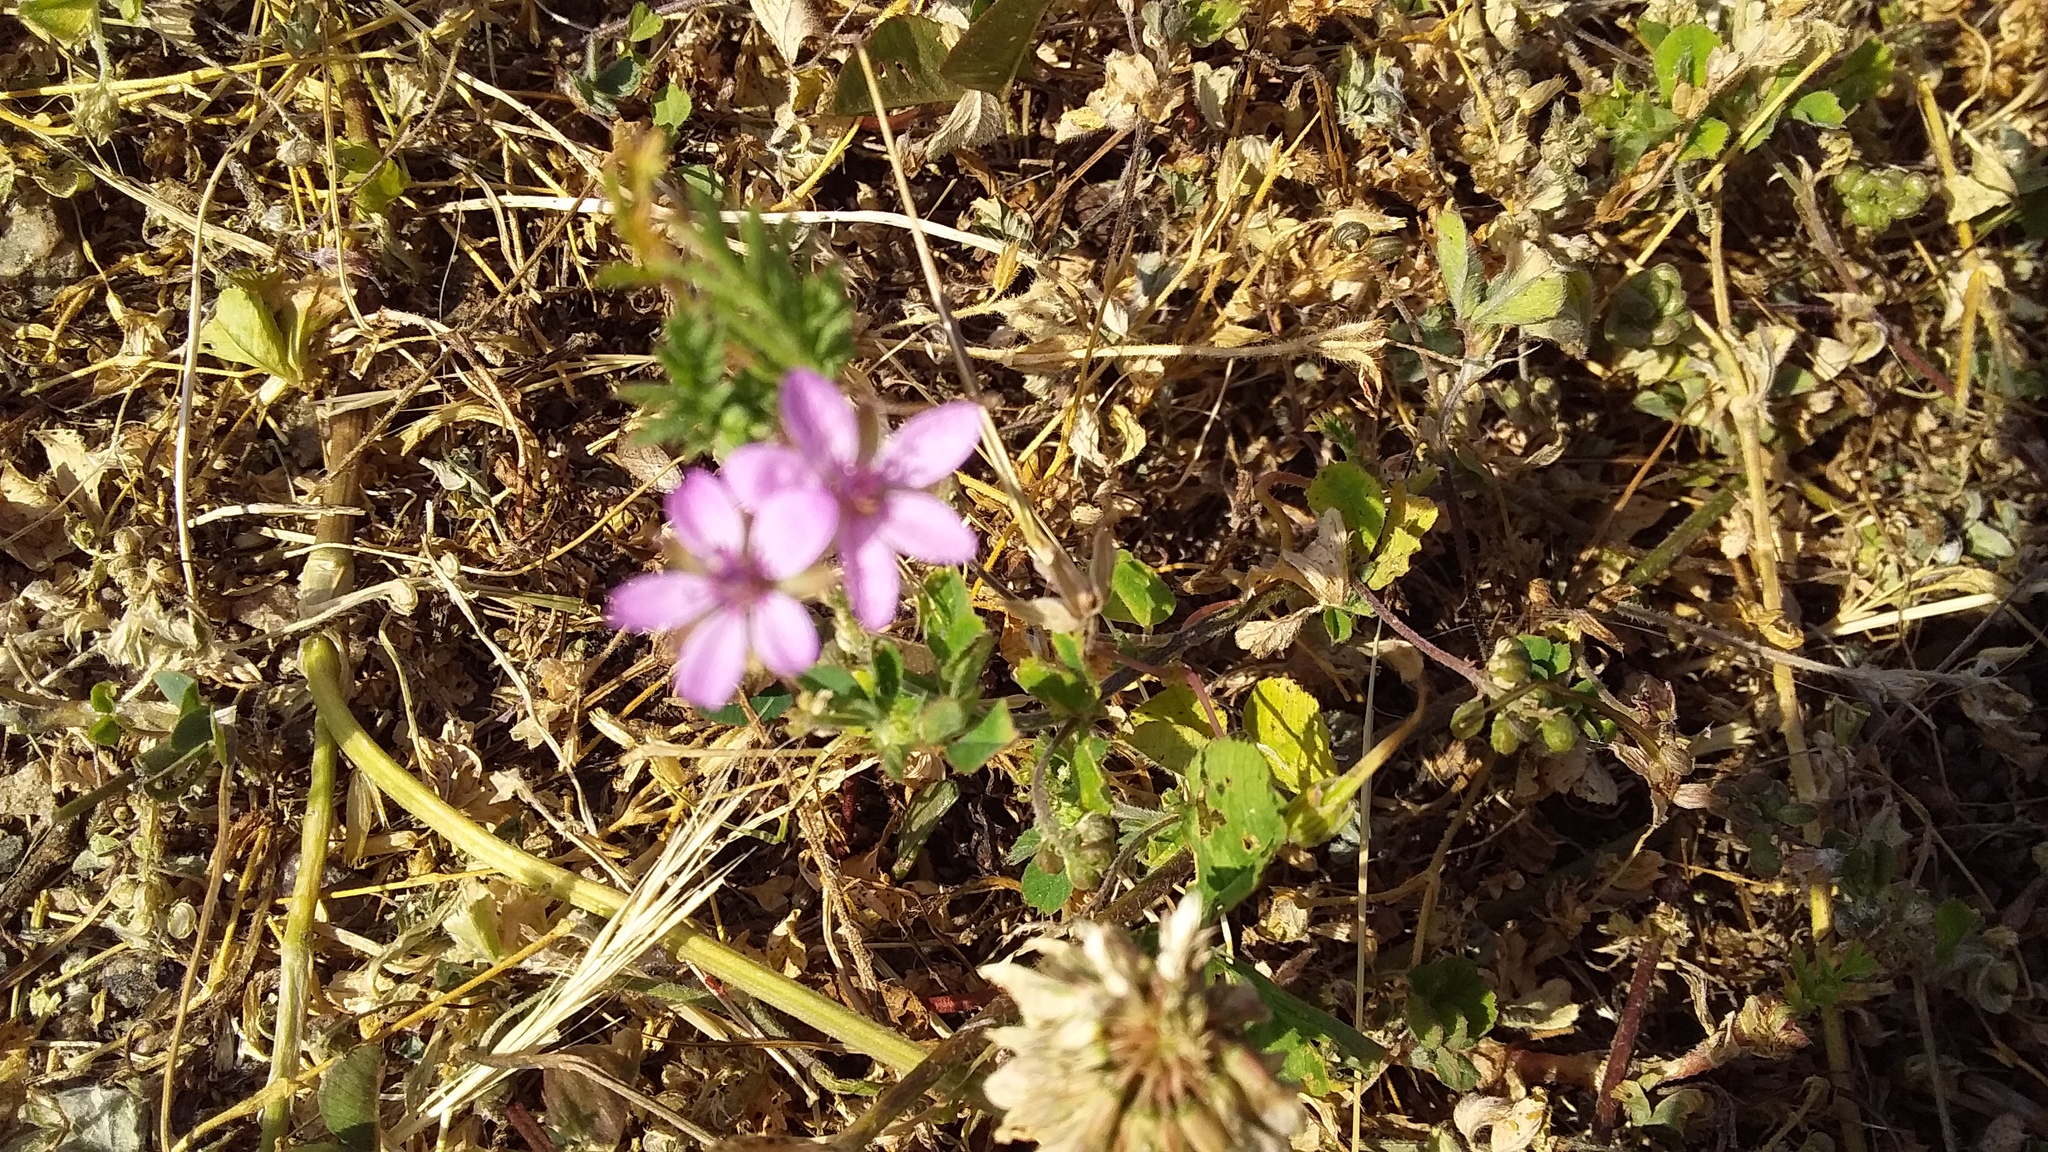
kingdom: Plantae
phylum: Tracheophyta
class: Magnoliopsida
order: Geraniales
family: Geraniaceae
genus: Erodium
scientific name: Erodium cicutarium
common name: Common stork's-bill
